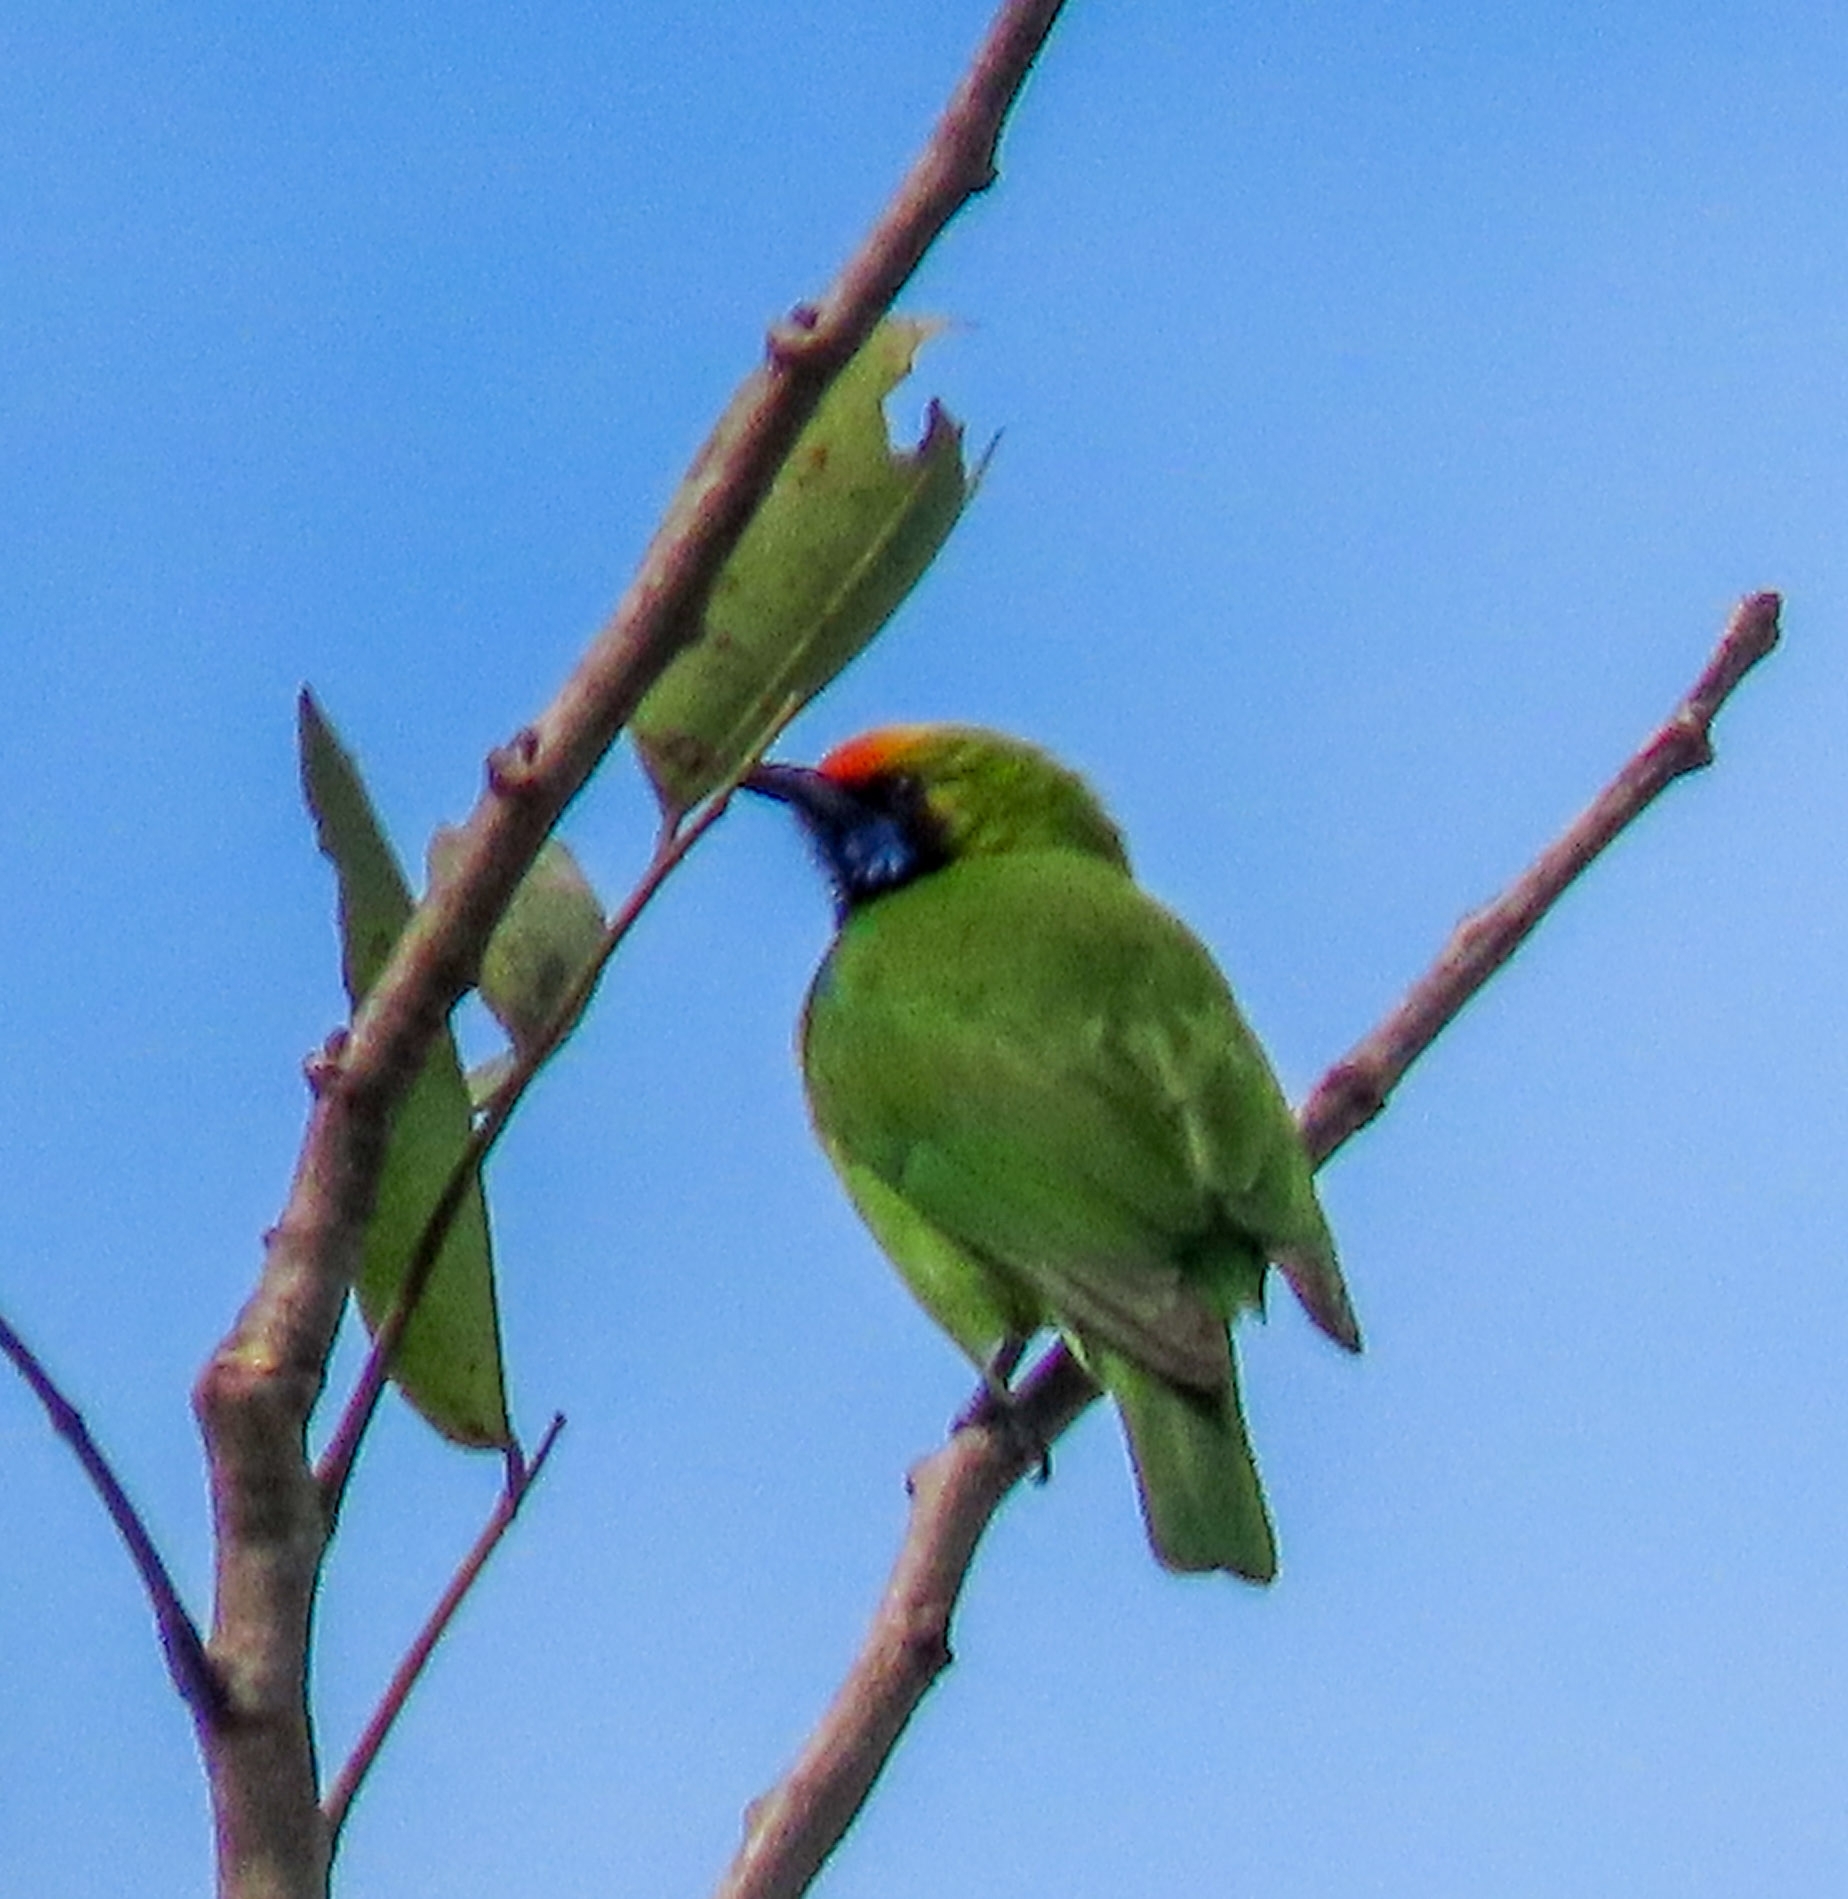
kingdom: Animalia
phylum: Chordata
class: Aves
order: Passeriformes
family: Chloropseidae
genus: Chloropsis
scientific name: Chloropsis aurifrons
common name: Golden-fronted leafbird
